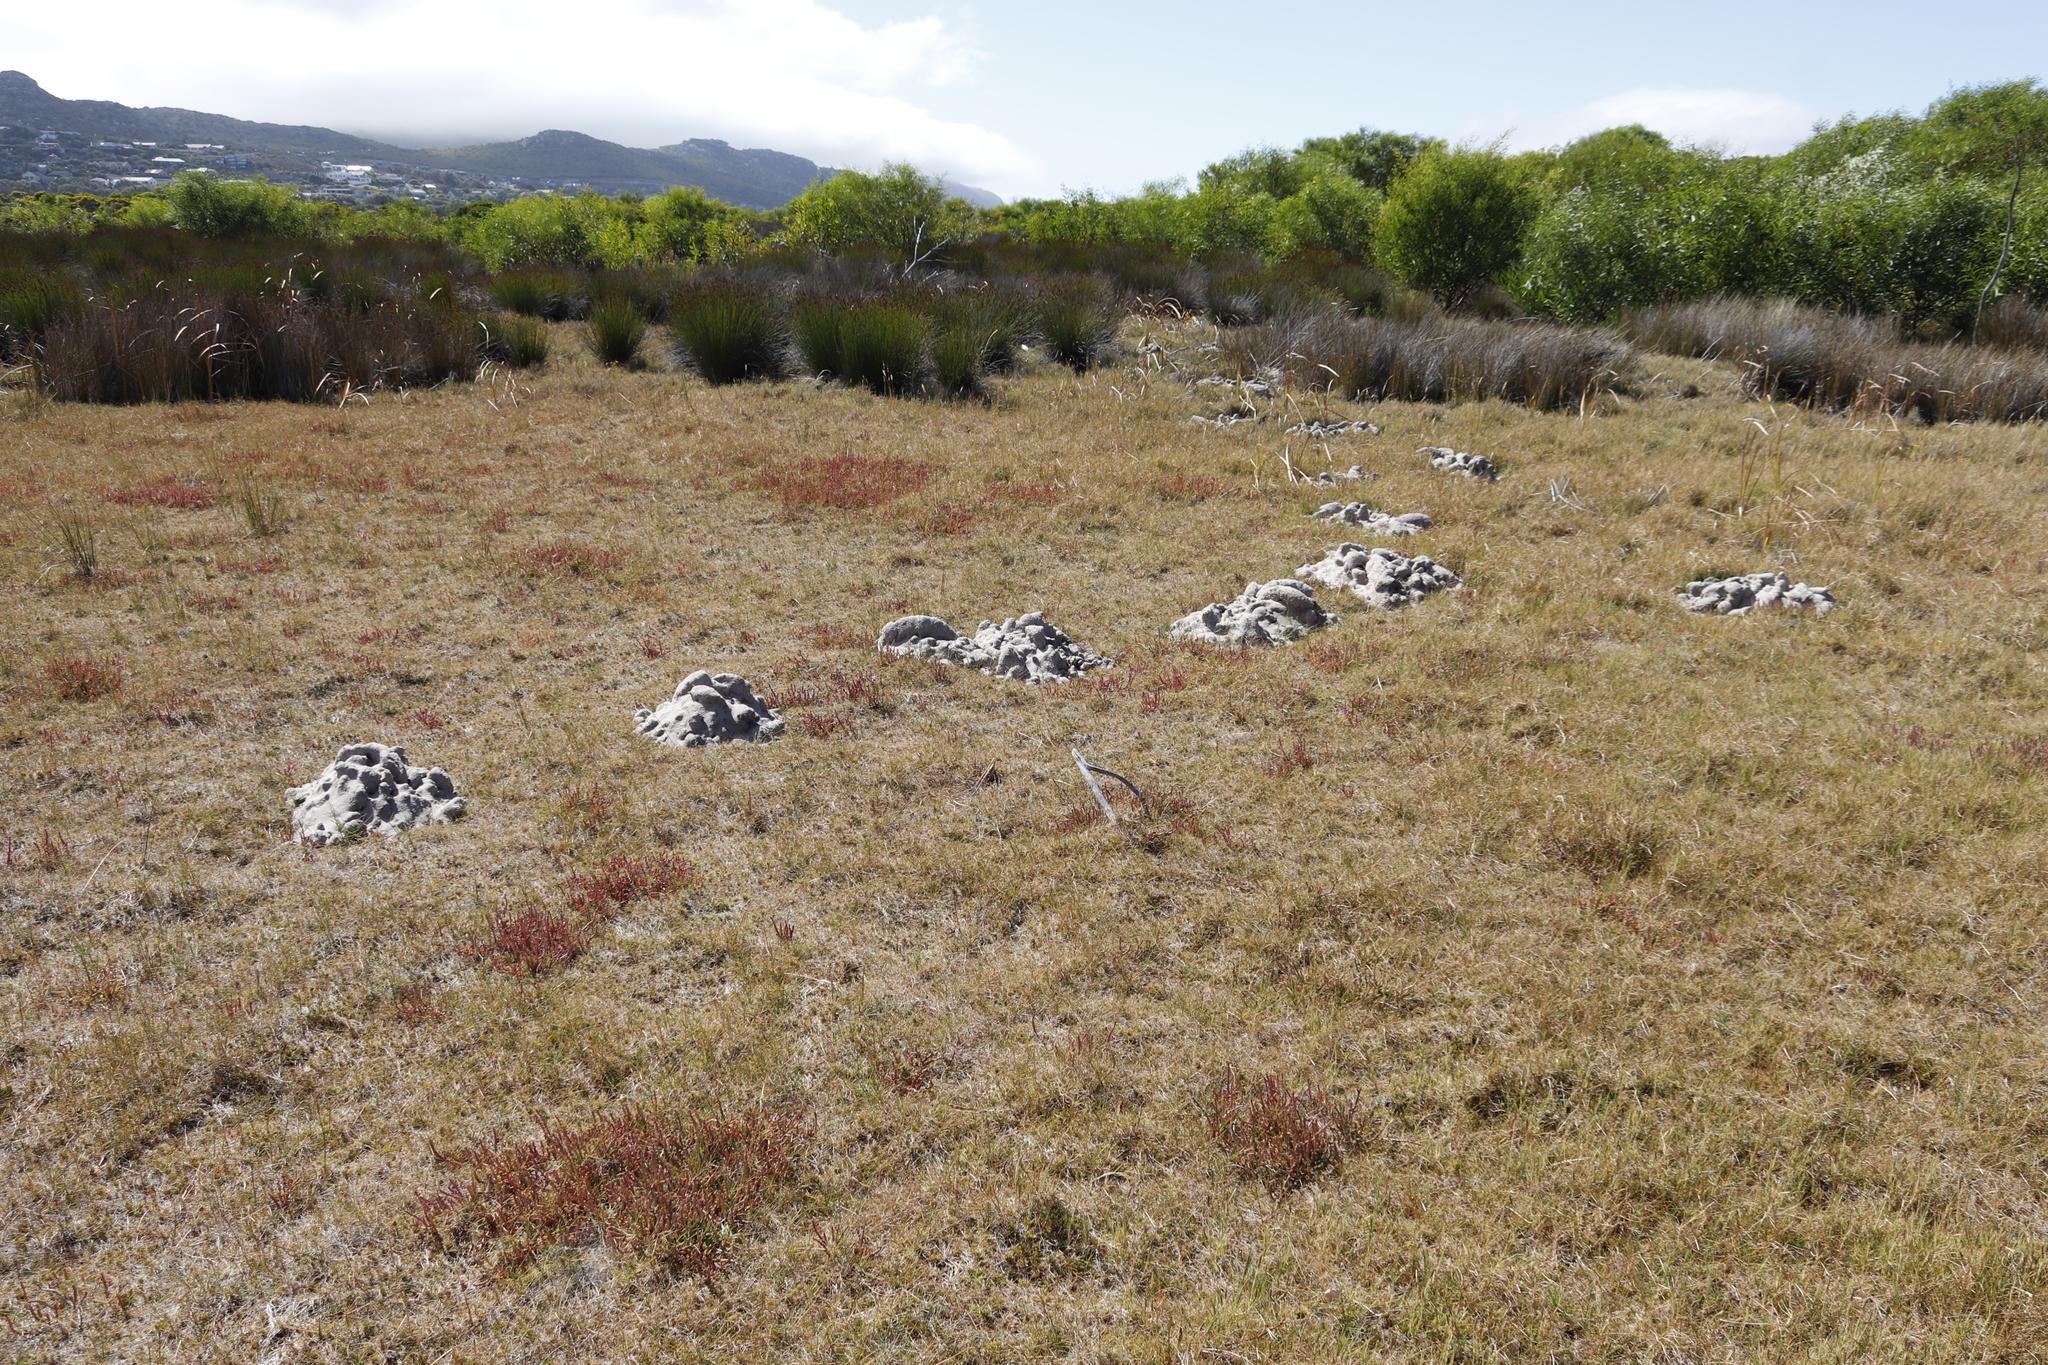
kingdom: Animalia
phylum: Chordata
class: Mammalia
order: Rodentia
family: Bathyergidae
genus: Bathyergus
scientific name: Bathyergus suillus
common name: Cape dune mole rat
